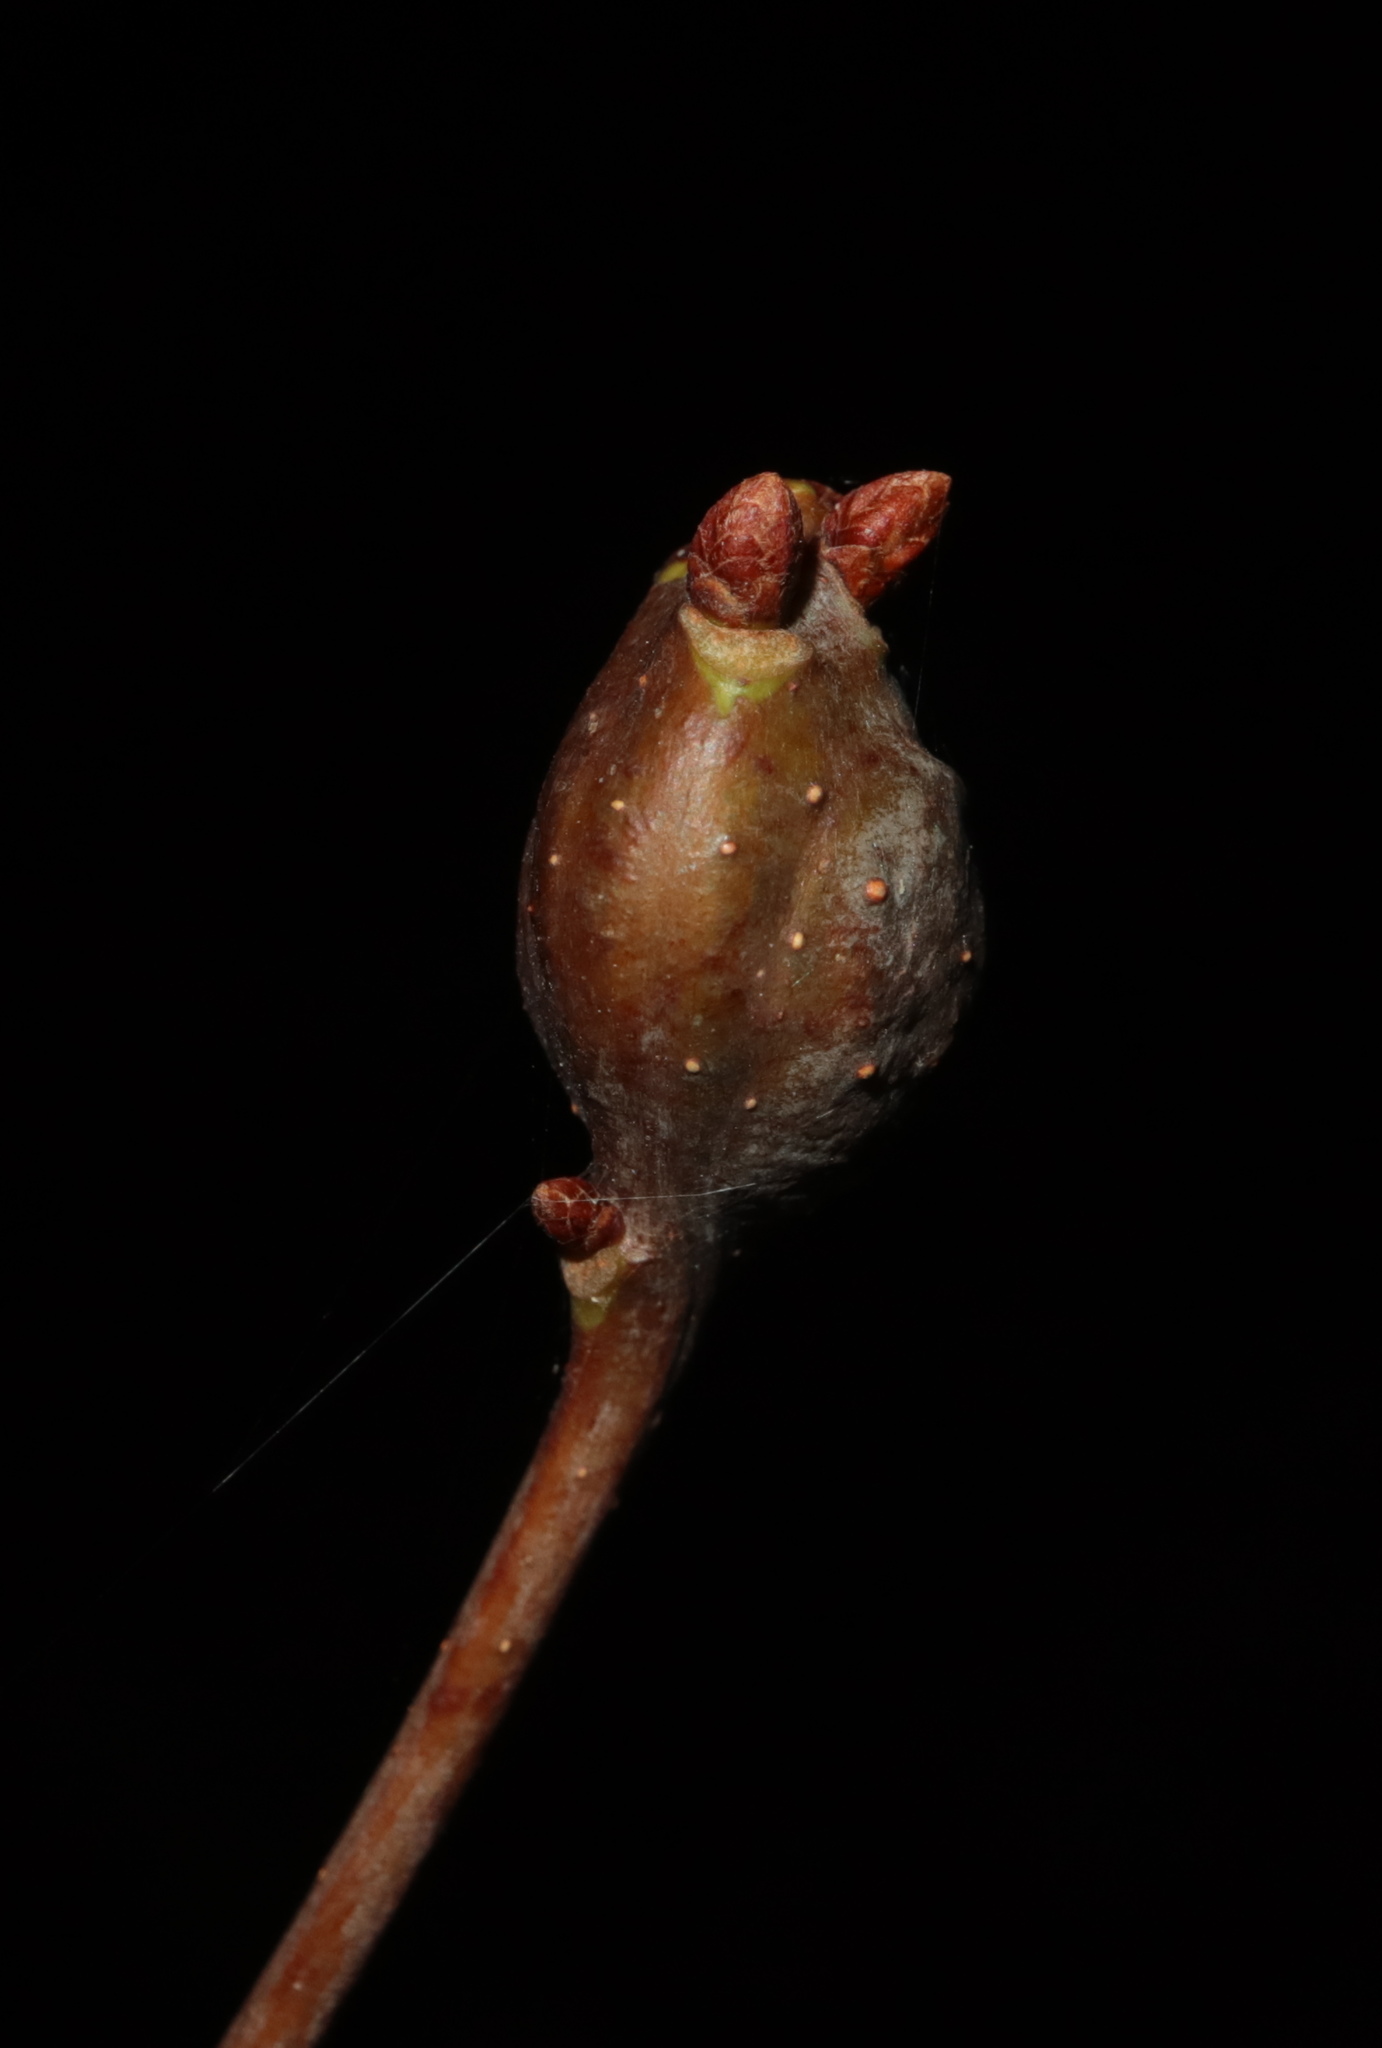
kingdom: Animalia
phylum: Arthropoda
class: Insecta
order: Hymenoptera
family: Cynipidae
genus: Callirhytis
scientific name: Callirhytis clavula
